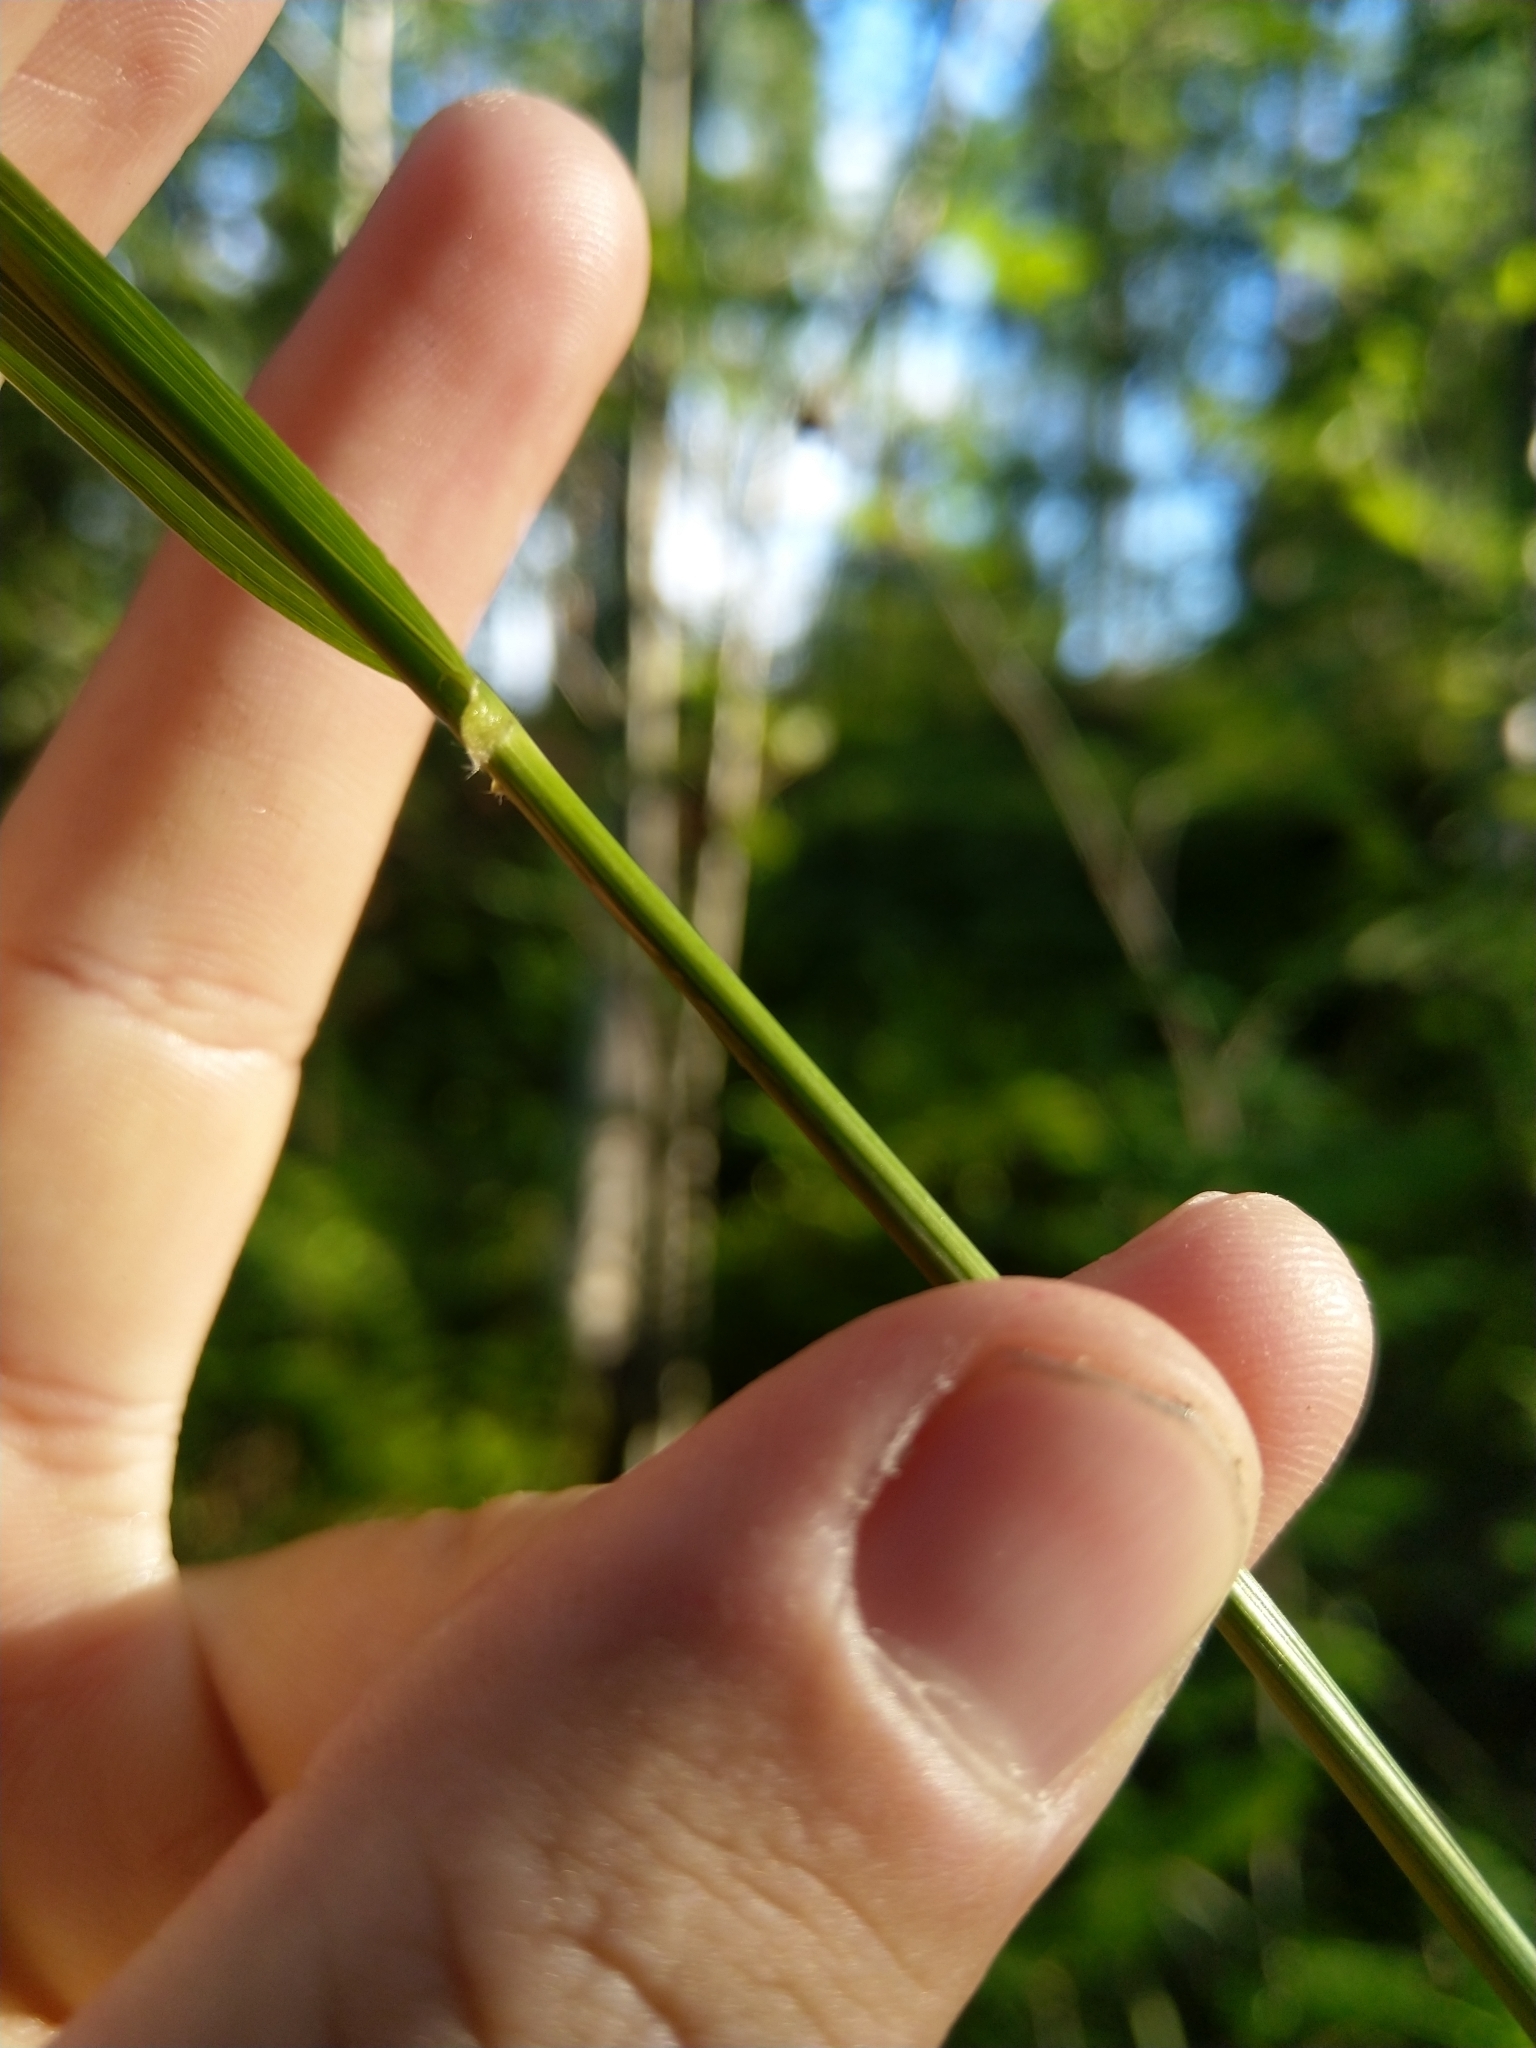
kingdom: Plantae
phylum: Tracheophyta
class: Liliopsida
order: Poales
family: Poaceae
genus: Calamagrostis
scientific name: Calamagrostis arundinacea
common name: Metskastik
